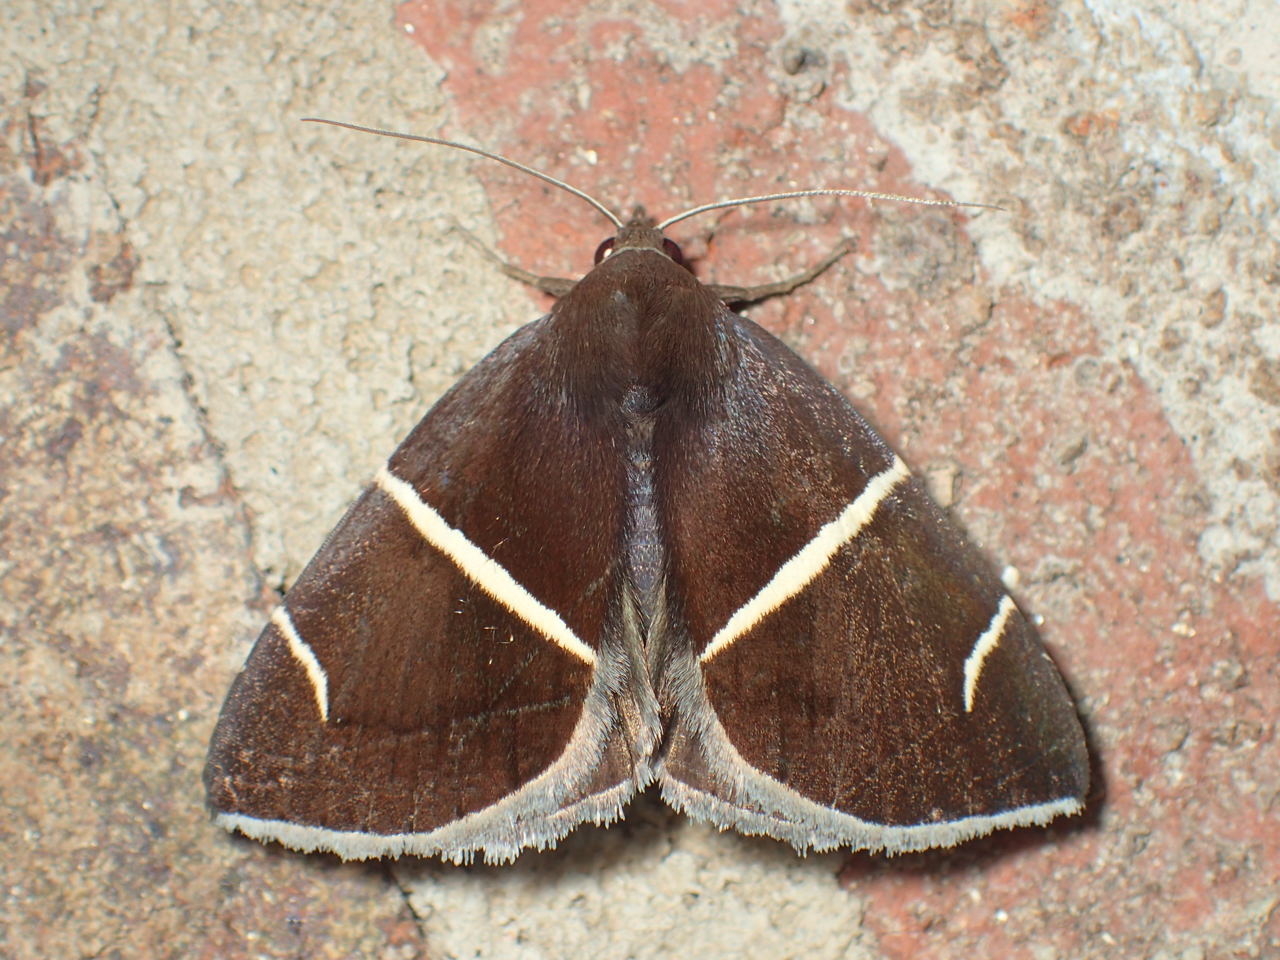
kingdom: Animalia
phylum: Arthropoda
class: Insecta
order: Lepidoptera
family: Erebidae
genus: Argyrostrotis
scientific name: Argyrostrotis anilis
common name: Short-lined chocolate
